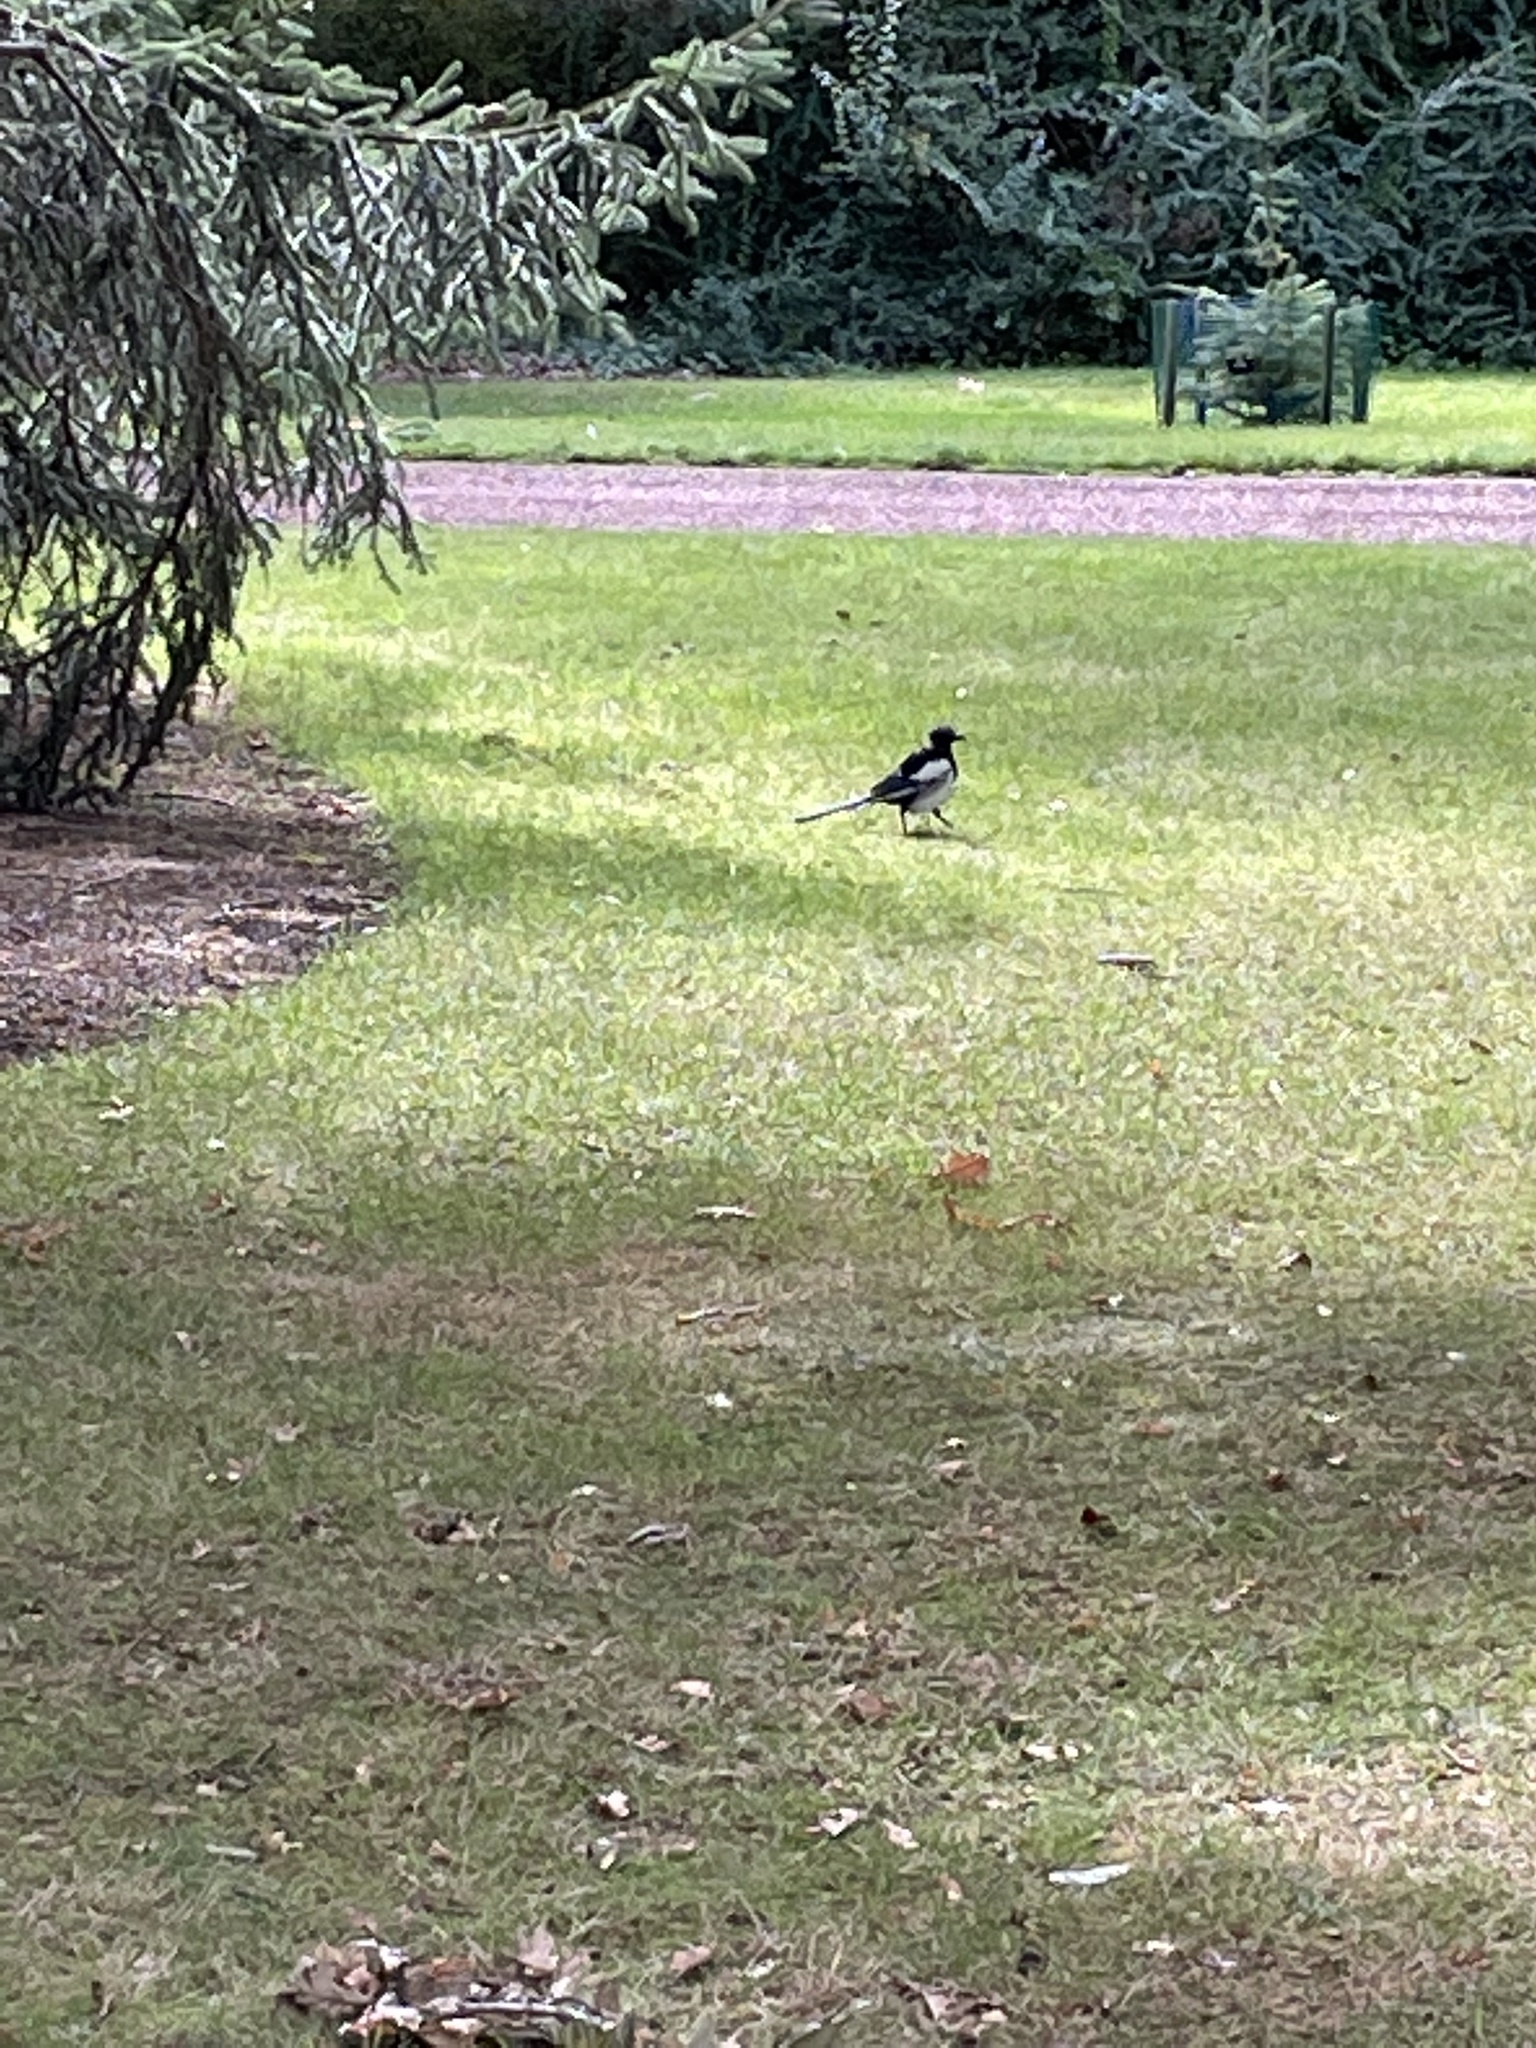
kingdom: Animalia
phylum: Chordata
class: Aves
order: Passeriformes
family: Corvidae
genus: Pica
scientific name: Pica pica
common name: Eurasian magpie
